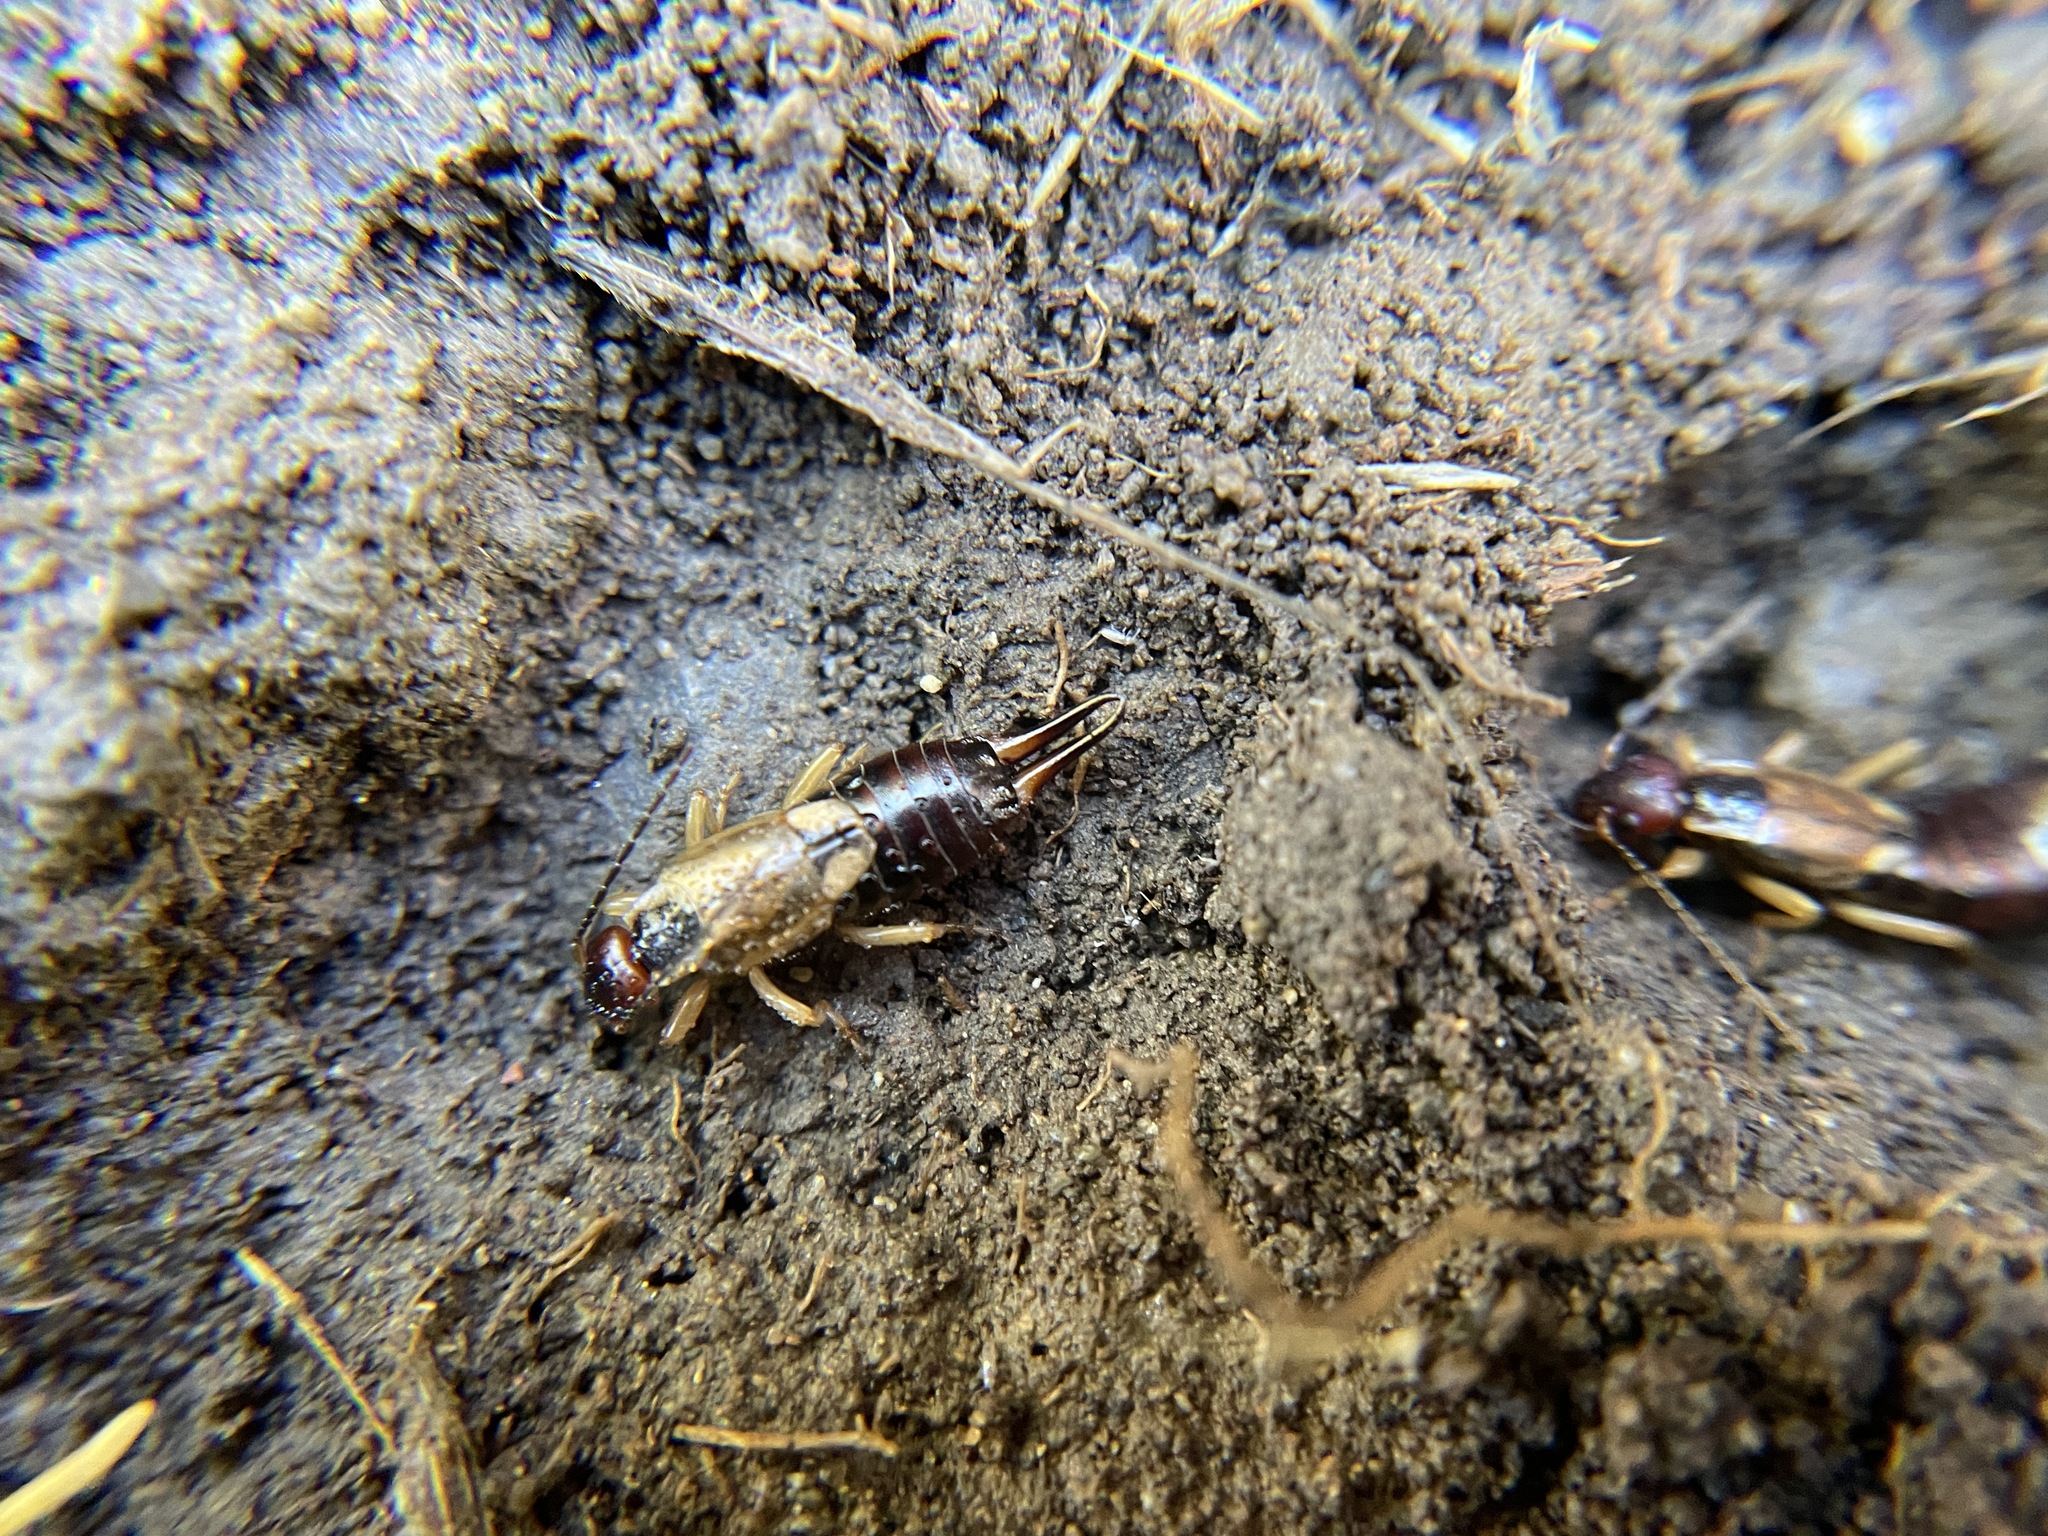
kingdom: Animalia
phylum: Arthropoda
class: Insecta
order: Dermaptera
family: Forficulidae
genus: Forficula
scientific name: Forficula dentata
